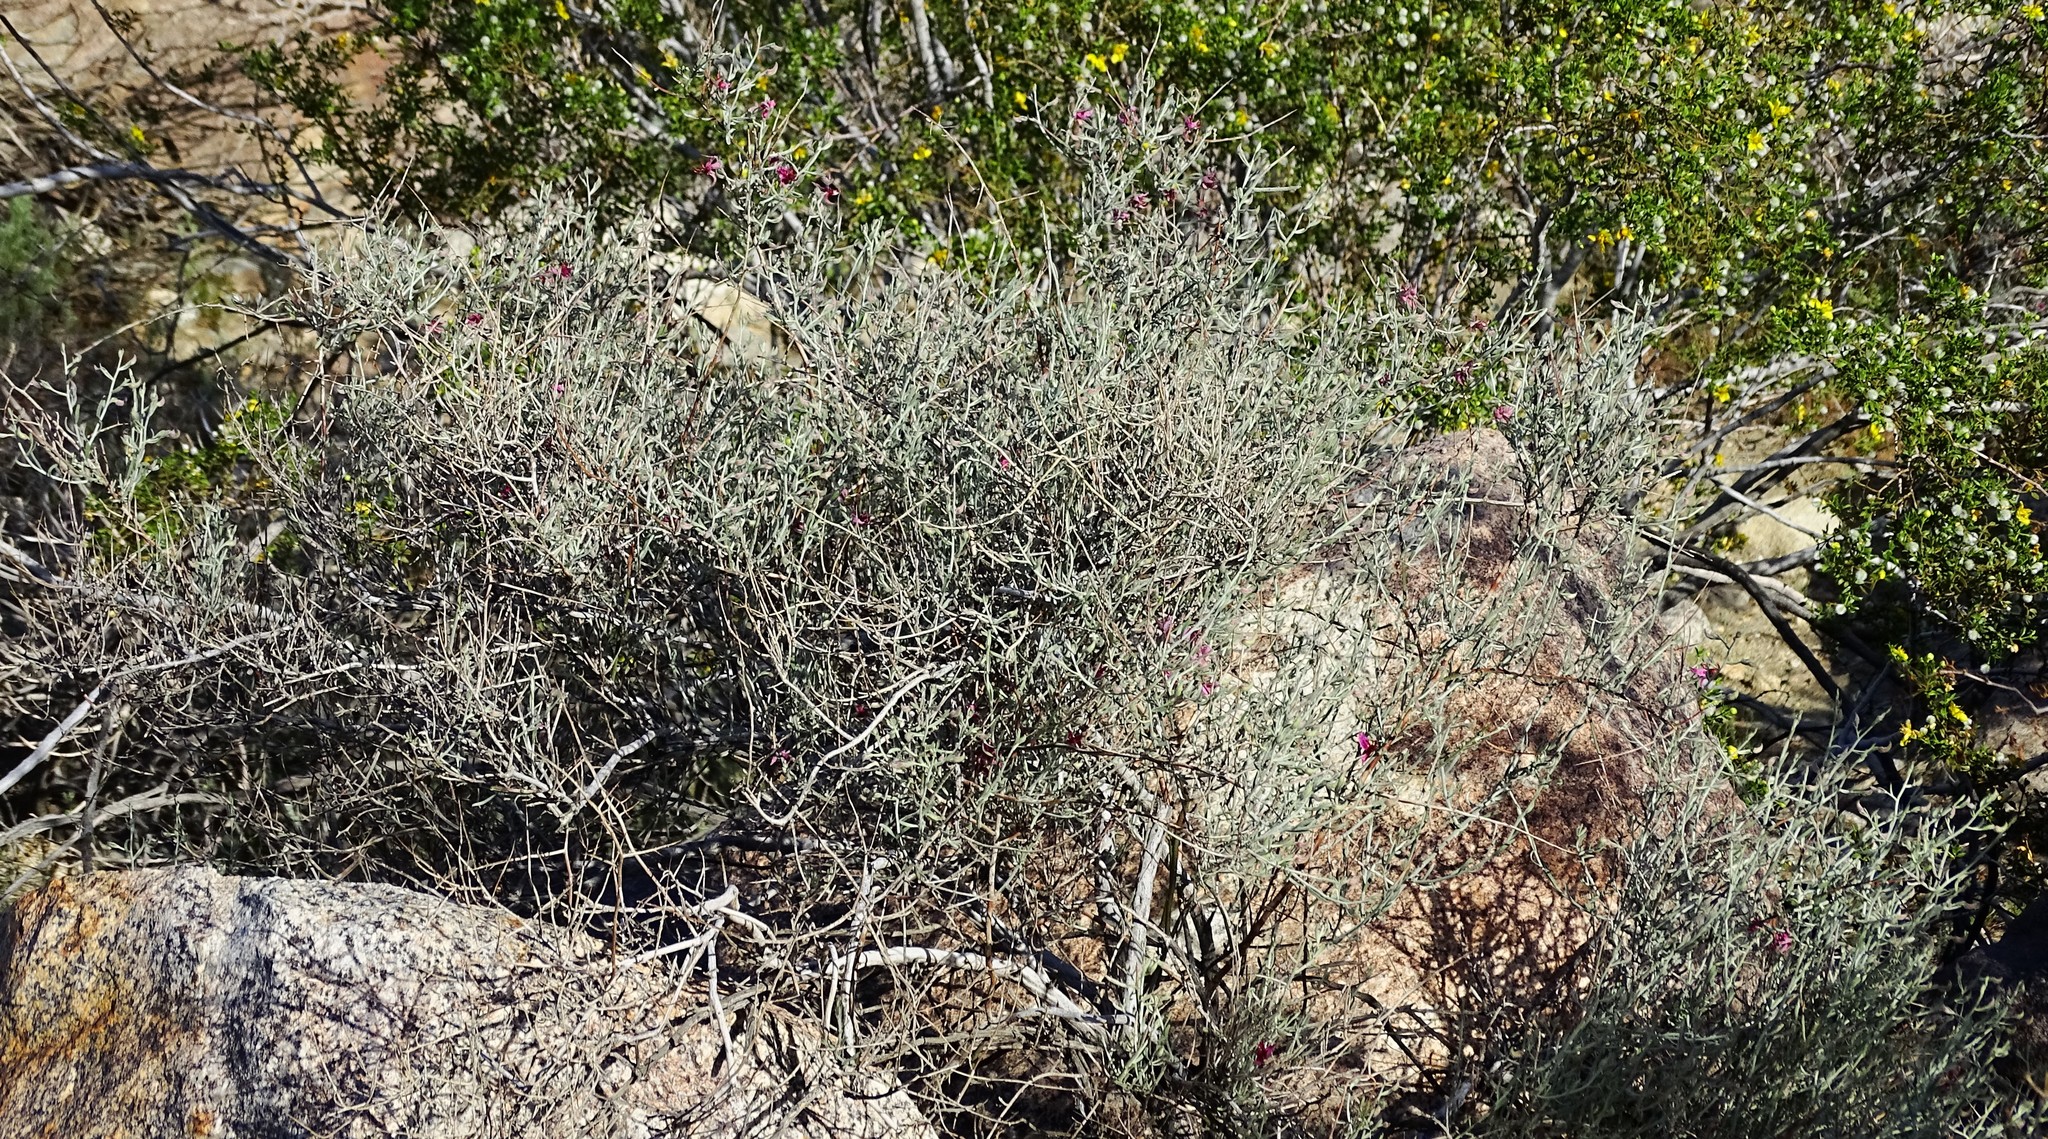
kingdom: Plantae
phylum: Tracheophyta
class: Magnoliopsida
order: Zygophyllales
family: Krameriaceae
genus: Krameria
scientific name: Krameria bicolor
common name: White ratany
